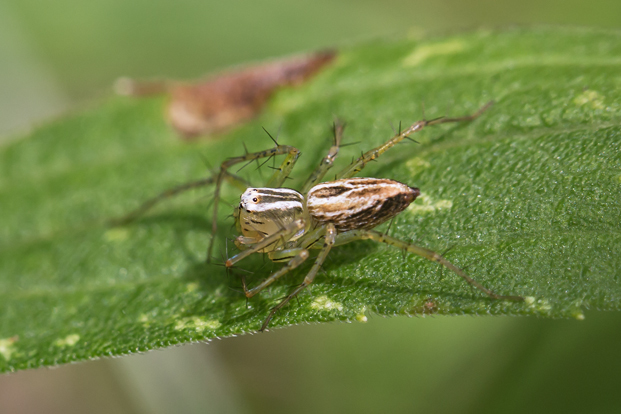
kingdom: Animalia
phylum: Arthropoda
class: Arachnida
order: Araneae
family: Oxyopidae
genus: Oxyopes
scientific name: Oxyopes salticus
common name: Lynx spiders
